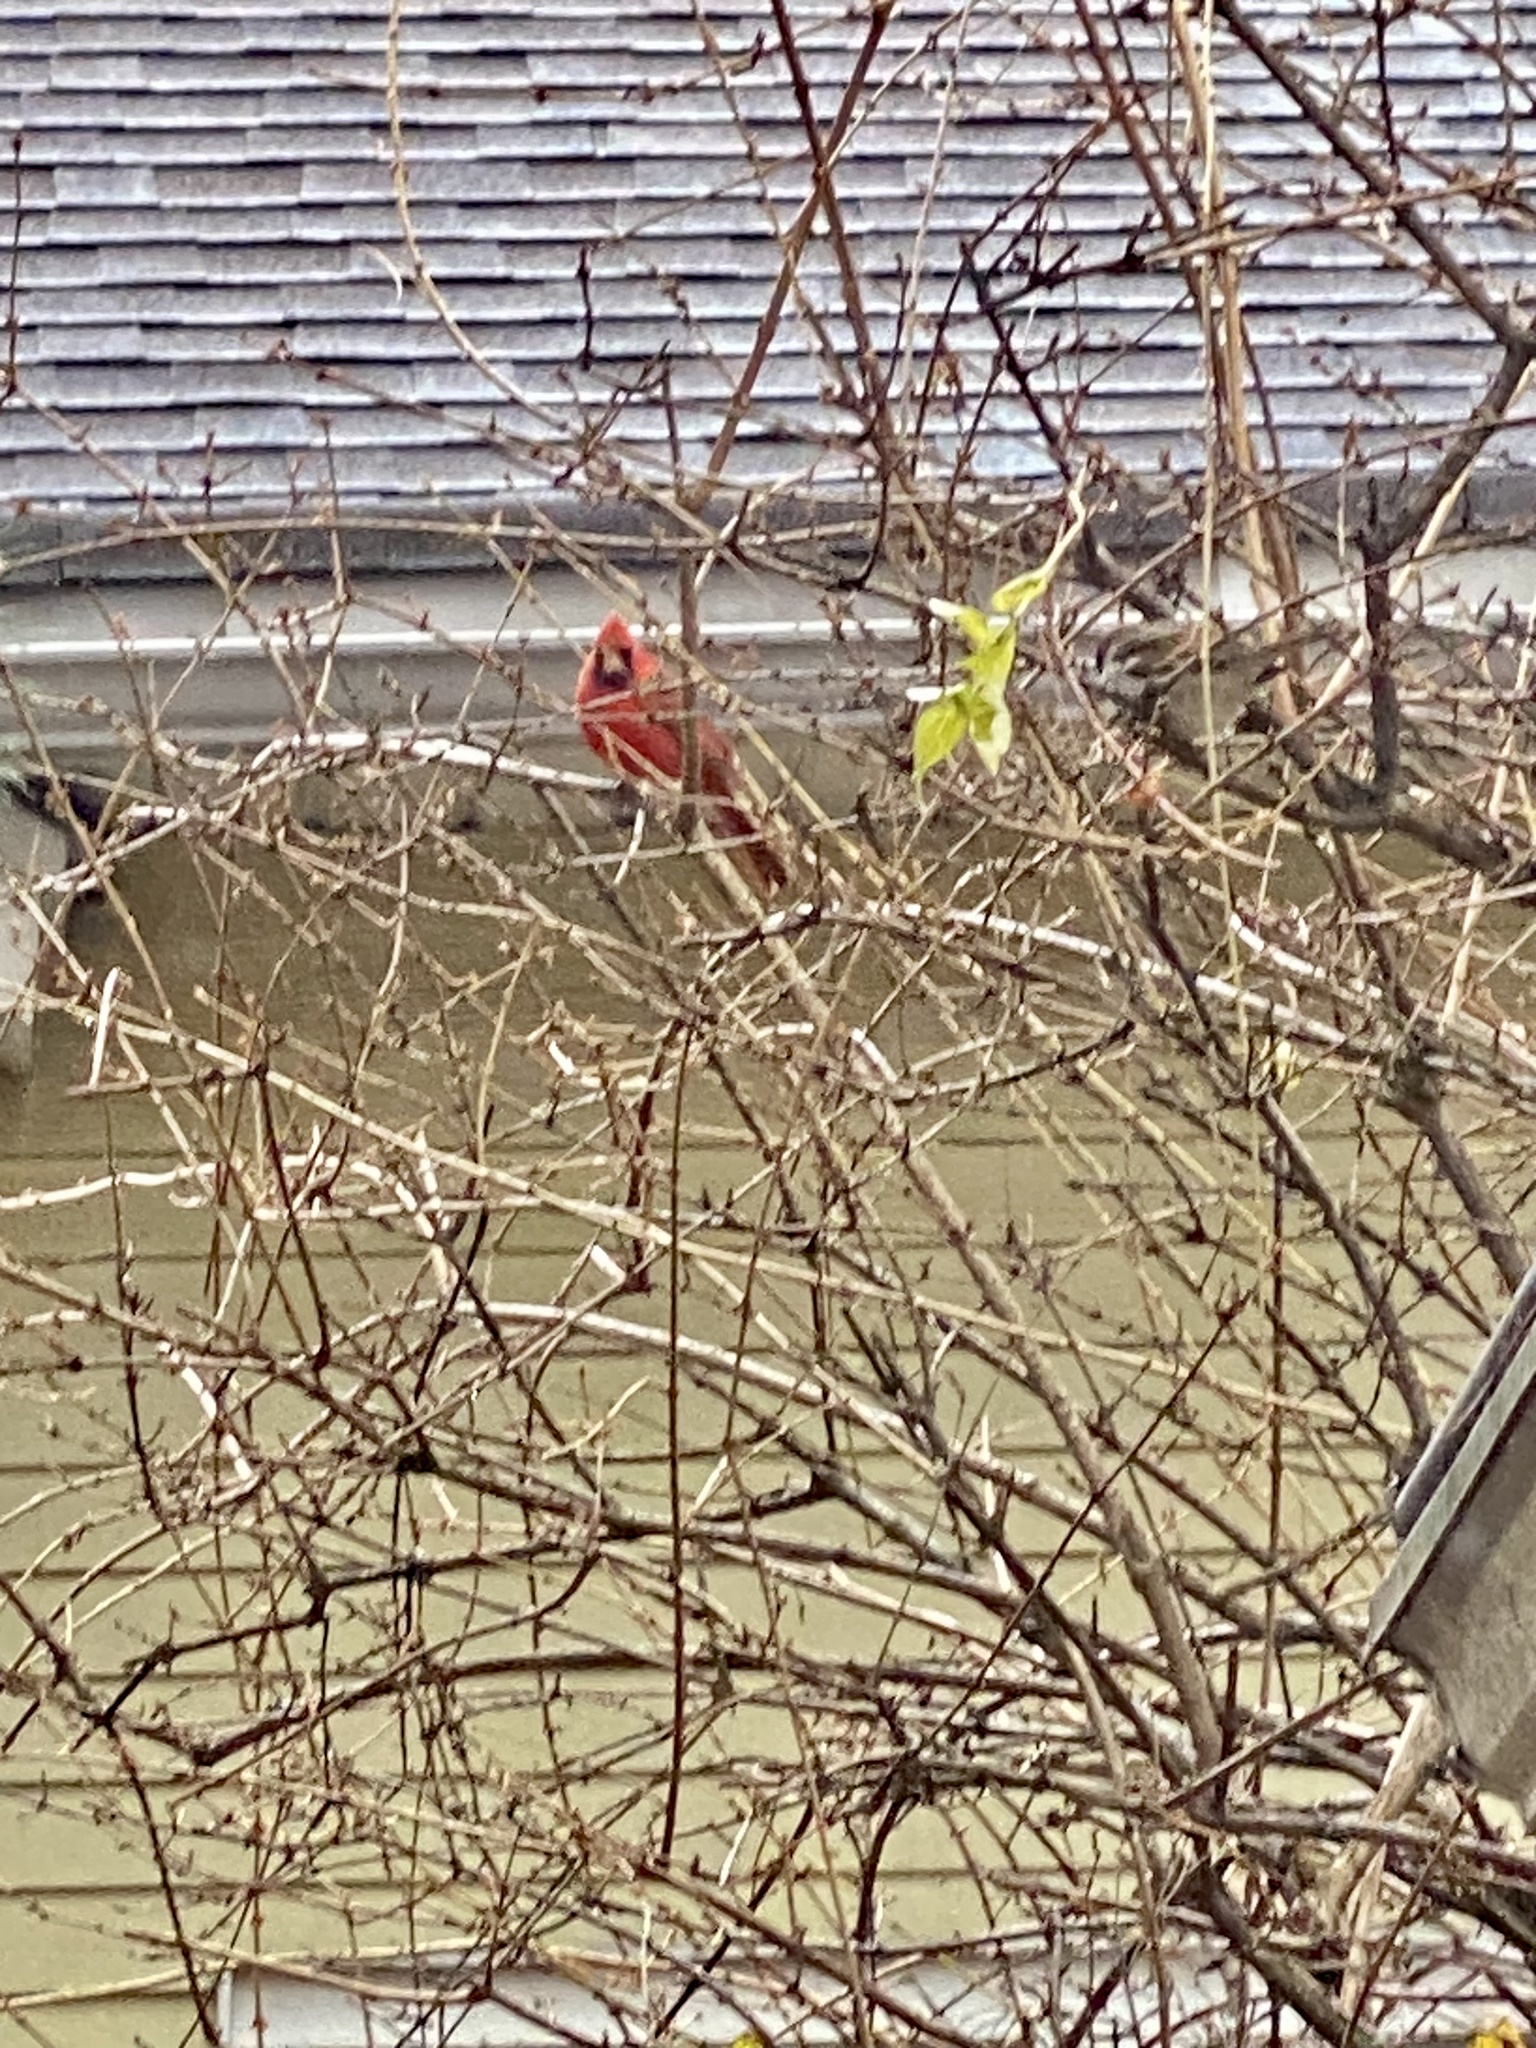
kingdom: Animalia
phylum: Chordata
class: Aves
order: Passeriformes
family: Cardinalidae
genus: Cardinalis
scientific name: Cardinalis cardinalis
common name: Northern cardinal
